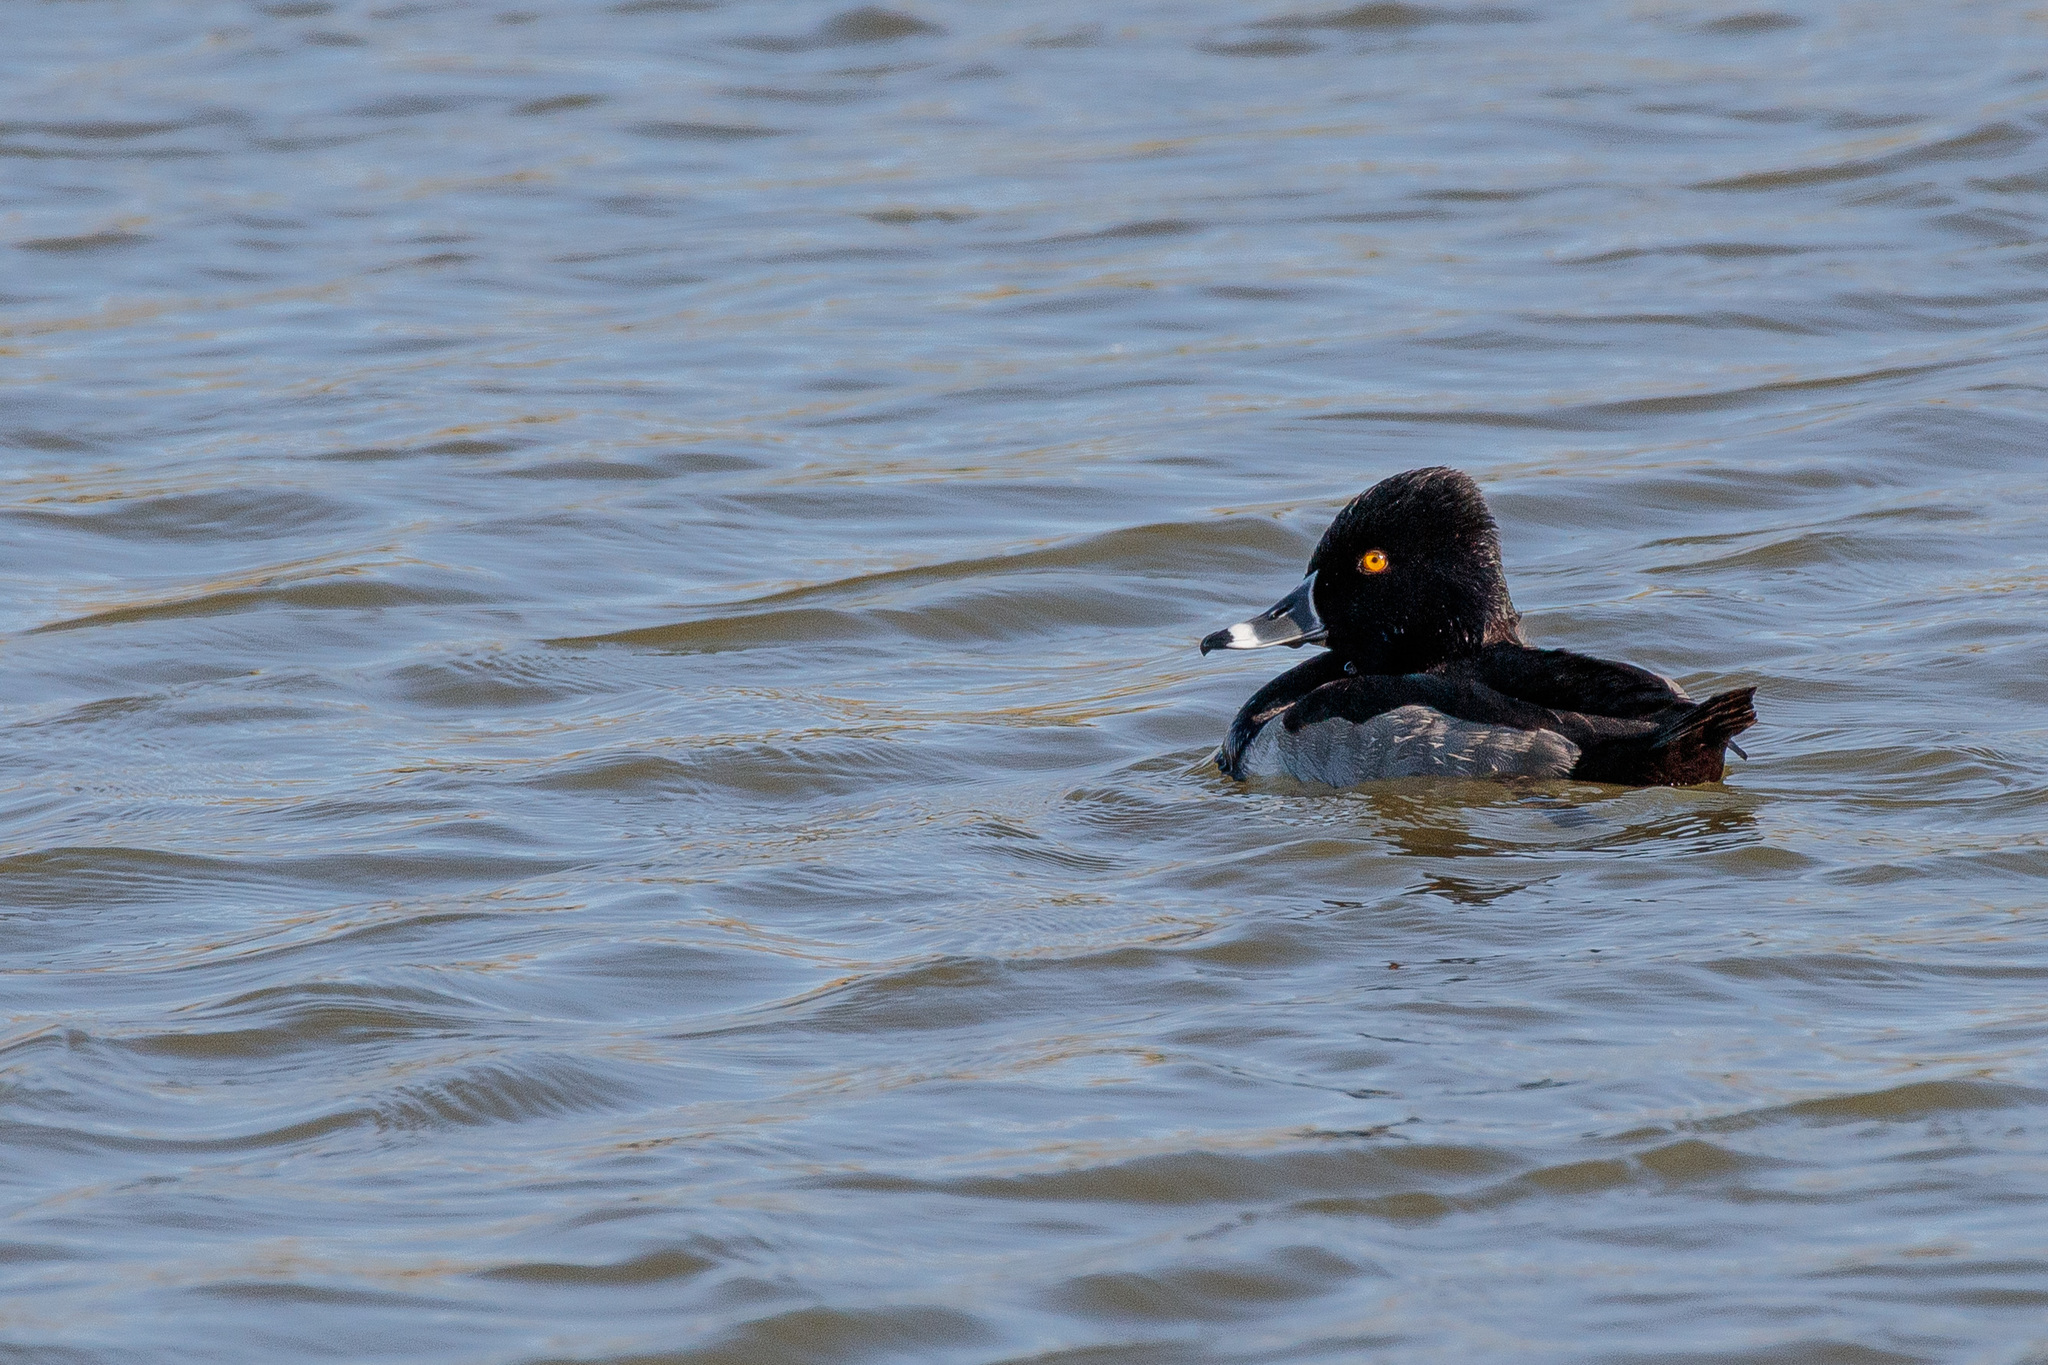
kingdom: Animalia
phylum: Chordata
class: Aves
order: Anseriformes
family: Anatidae
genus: Aythya
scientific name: Aythya collaris
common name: Ring-necked duck
